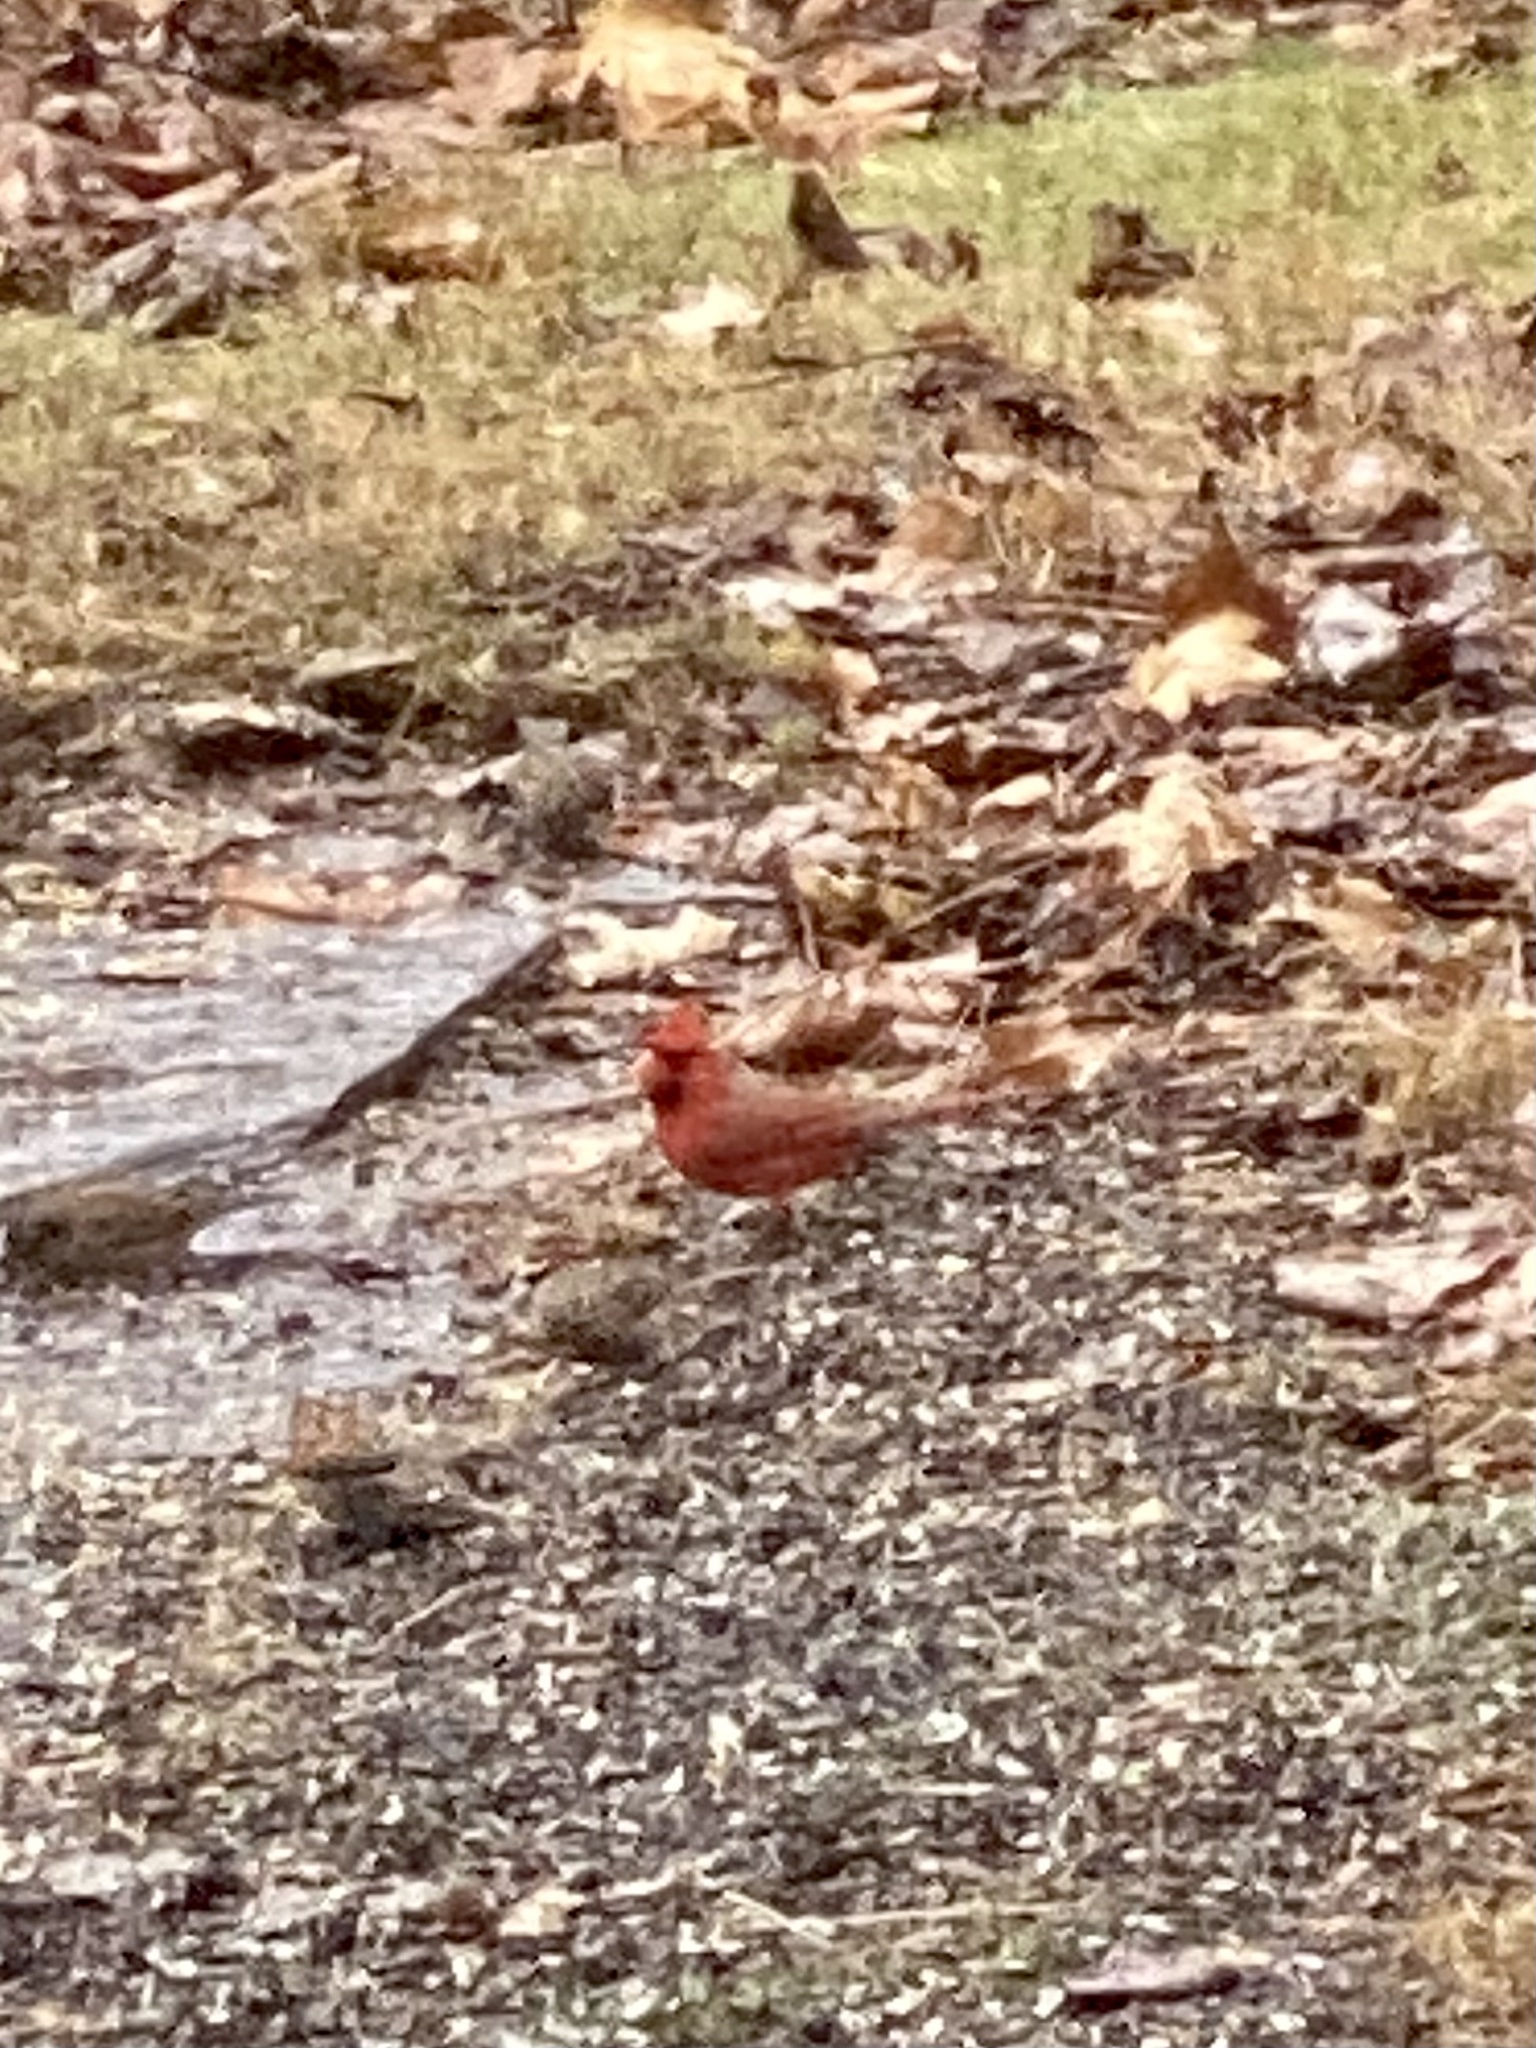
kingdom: Animalia
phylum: Chordata
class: Aves
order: Passeriformes
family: Cardinalidae
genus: Cardinalis
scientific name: Cardinalis cardinalis
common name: Northern cardinal
